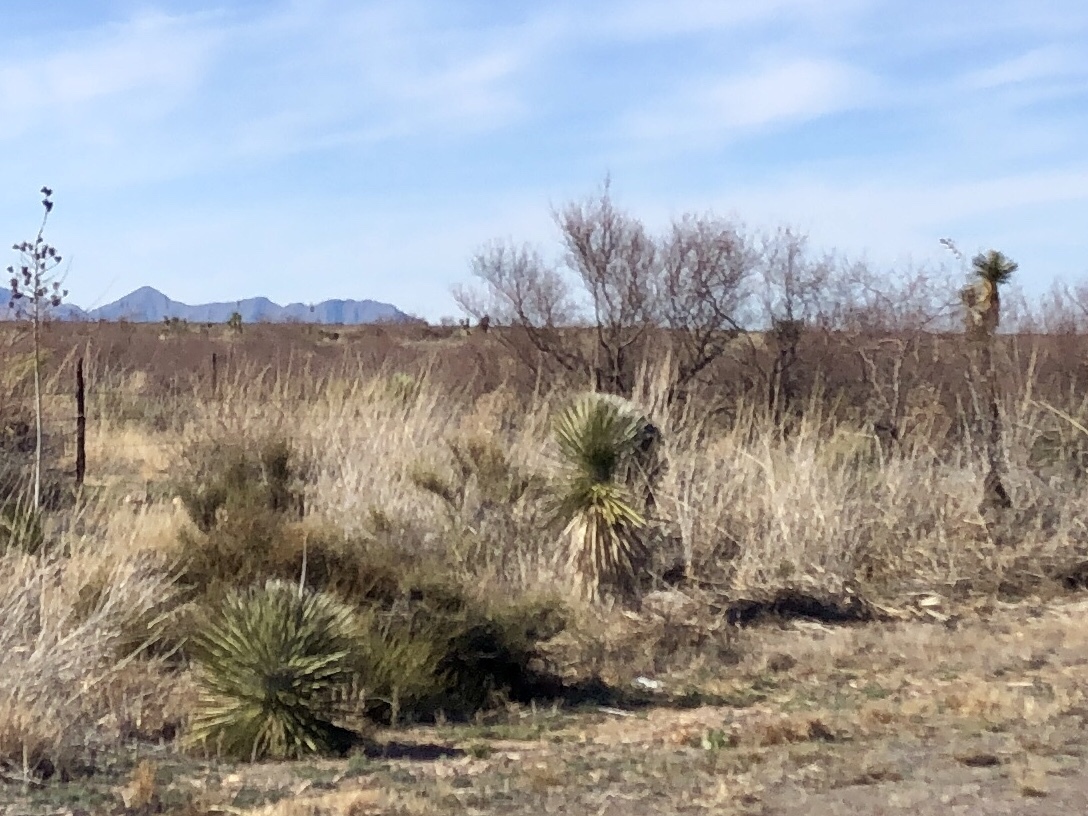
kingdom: Plantae
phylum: Tracheophyta
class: Liliopsida
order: Asparagales
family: Asparagaceae
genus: Yucca
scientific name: Yucca elata
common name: Palmella
